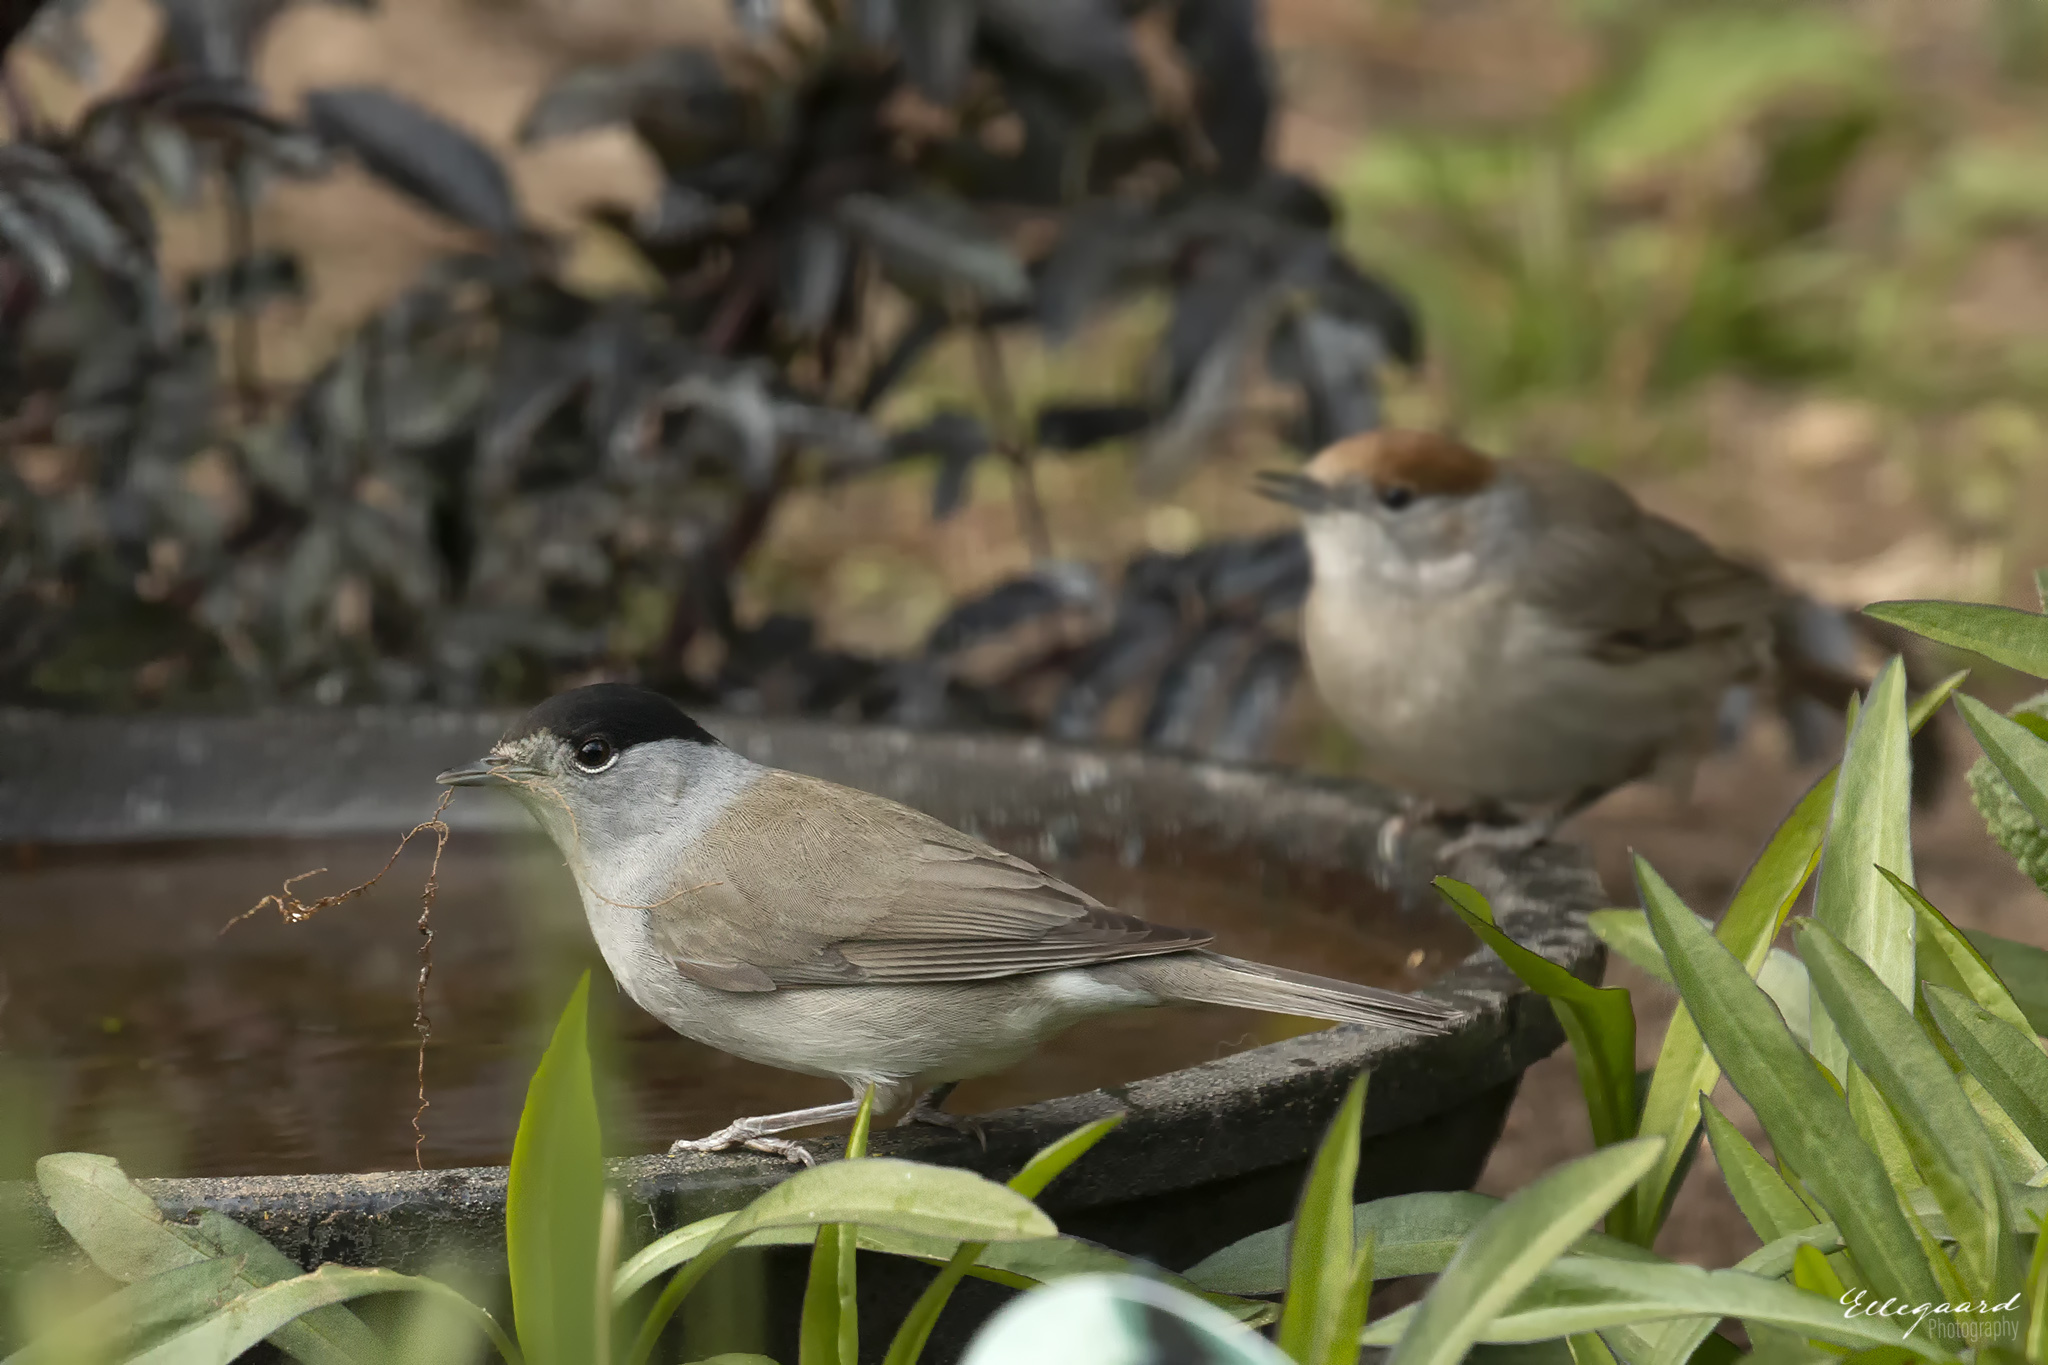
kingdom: Animalia
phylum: Chordata
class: Aves
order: Passeriformes
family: Sylviidae
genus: Sylvia
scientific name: Sylvia atricapilla
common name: Eurasian blackcap
